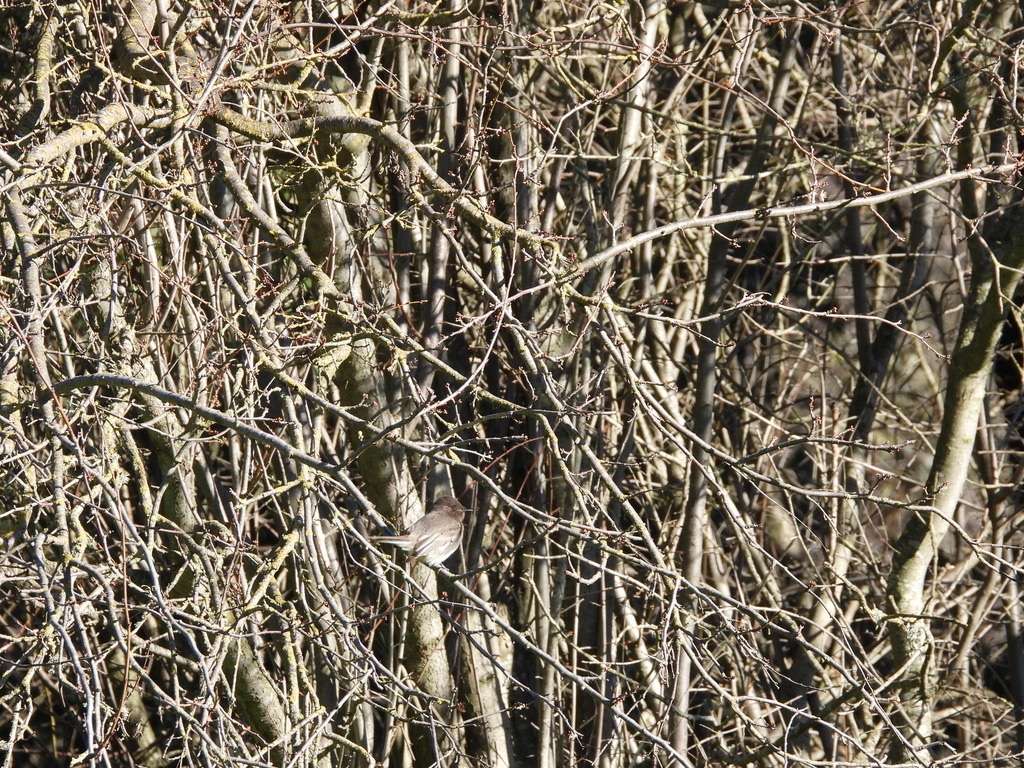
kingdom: Animalia
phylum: Chordata
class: Aves
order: Passeriformes
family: Tyrannidae
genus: Sayornis
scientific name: Sayornis nigricans
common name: Black phoebe
